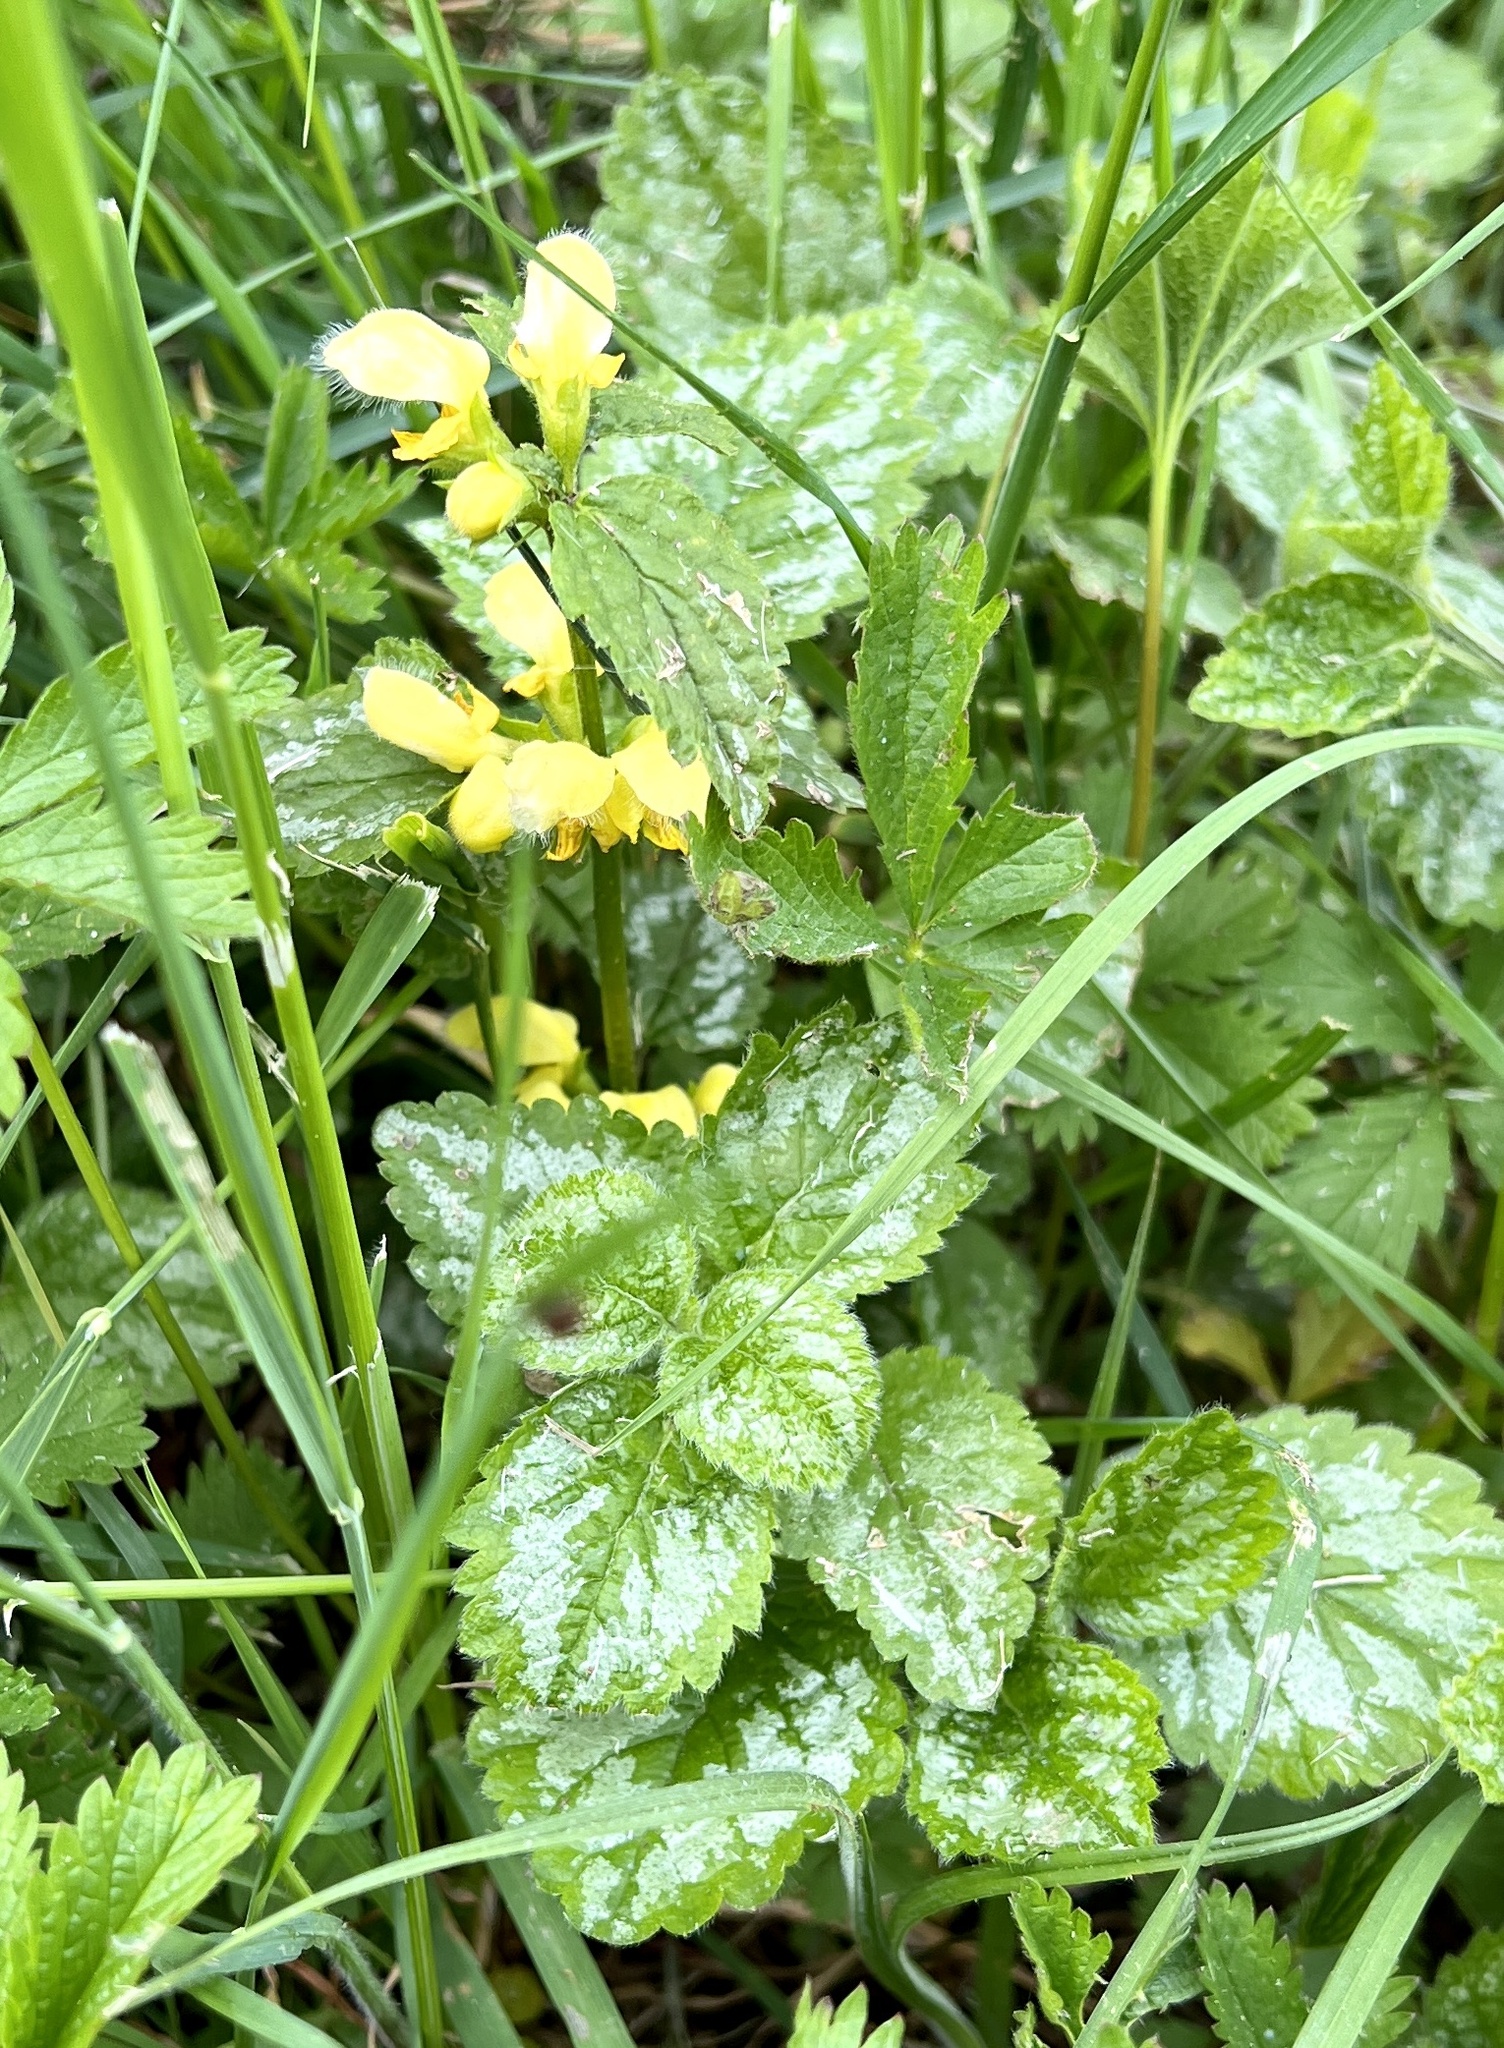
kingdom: Plantae
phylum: Tracheophyta
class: Magnoliopsida
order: Lamiales
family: Lamiaceae
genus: Lamium
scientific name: Lamium galeobdolon
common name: Yellow archangel
